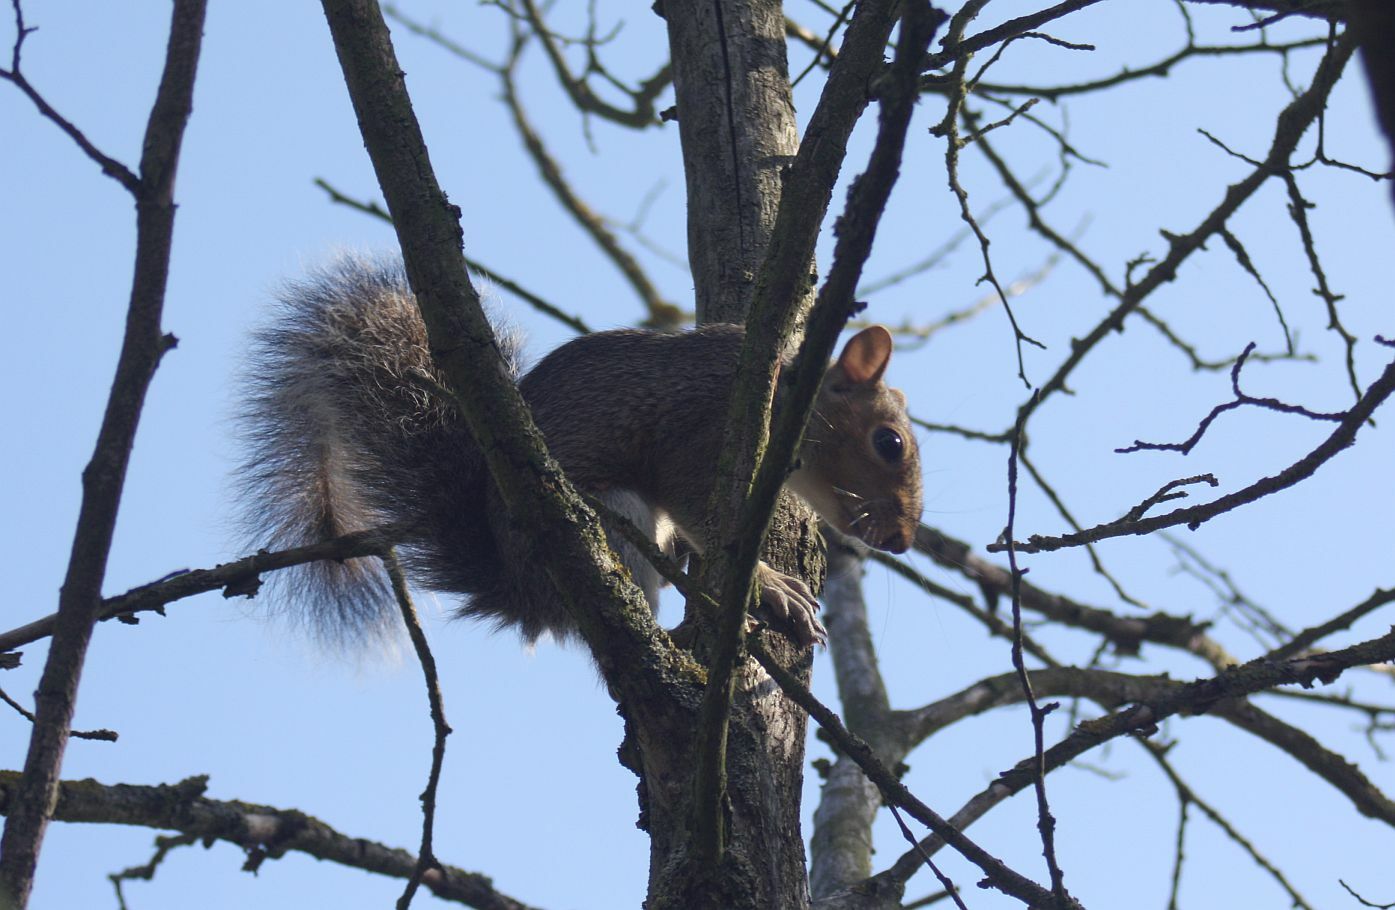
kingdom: Animalia
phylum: Chordata
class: Mammalia
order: Rodentia
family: Sciuridae
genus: Sciurus
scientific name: Sciurus carolinensis
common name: Eastern gray squirrel
